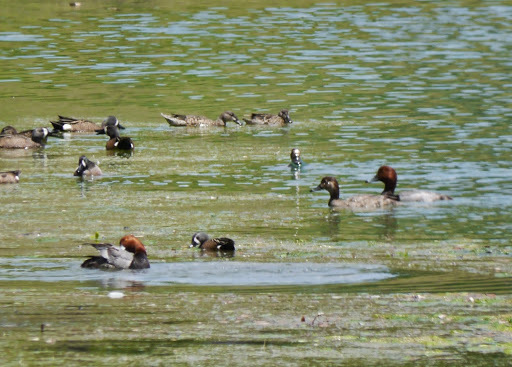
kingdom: Animalia
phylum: Chordata
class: Aves
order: Anseriformes
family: Anatidae
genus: Aythya
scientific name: Aythya americana
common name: Redhead
